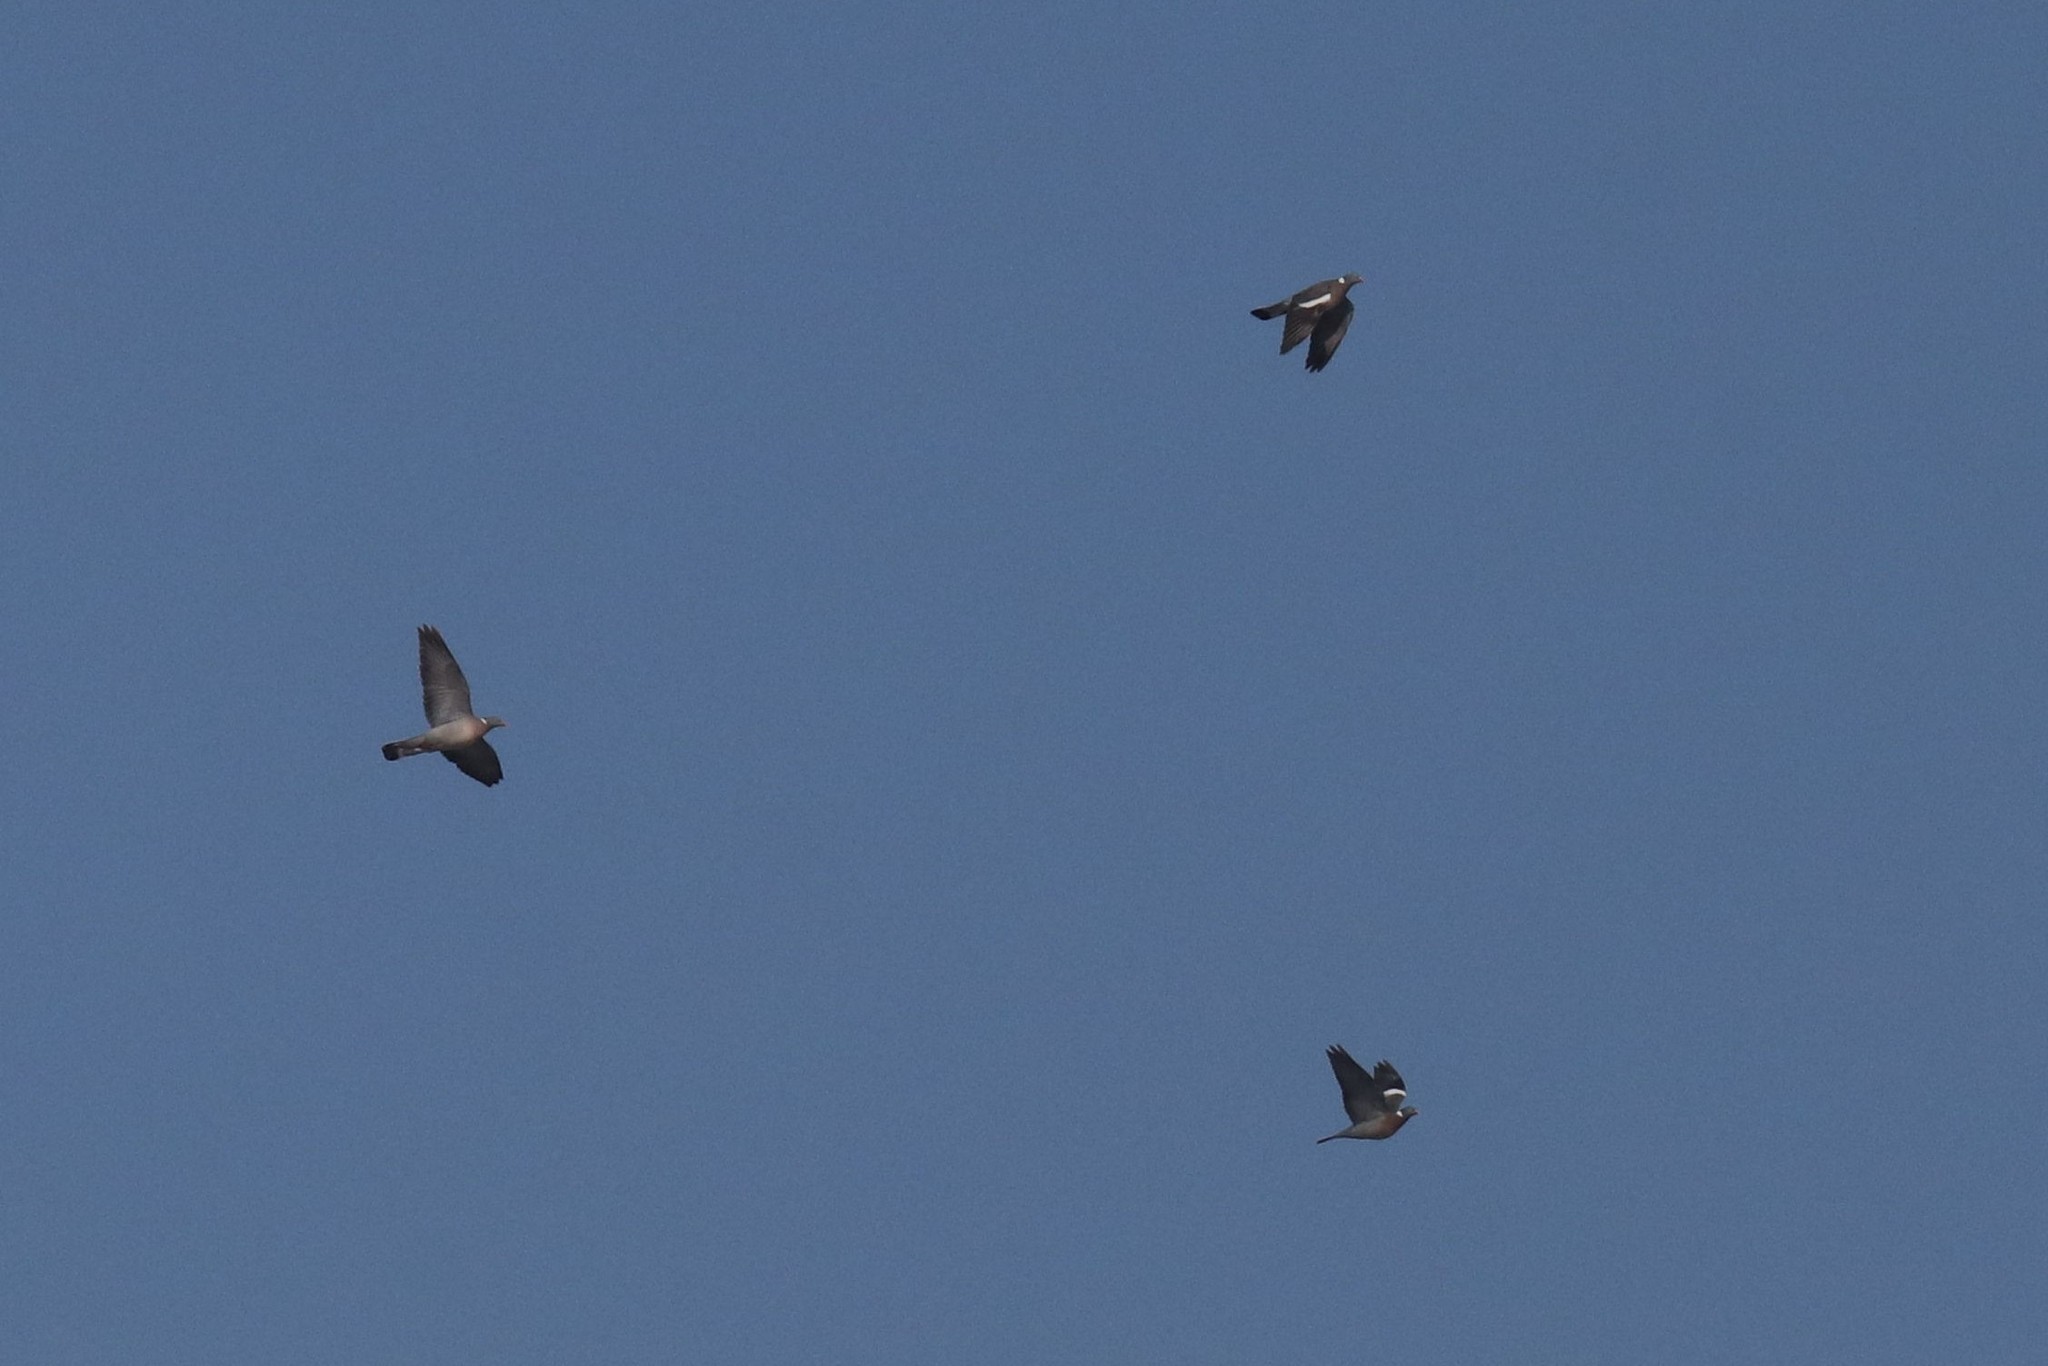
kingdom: Animalia
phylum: Chordata
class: Aves
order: Columbiformes
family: Columbidae
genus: Columba
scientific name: Columba palumbus
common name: Common wood pigeon
